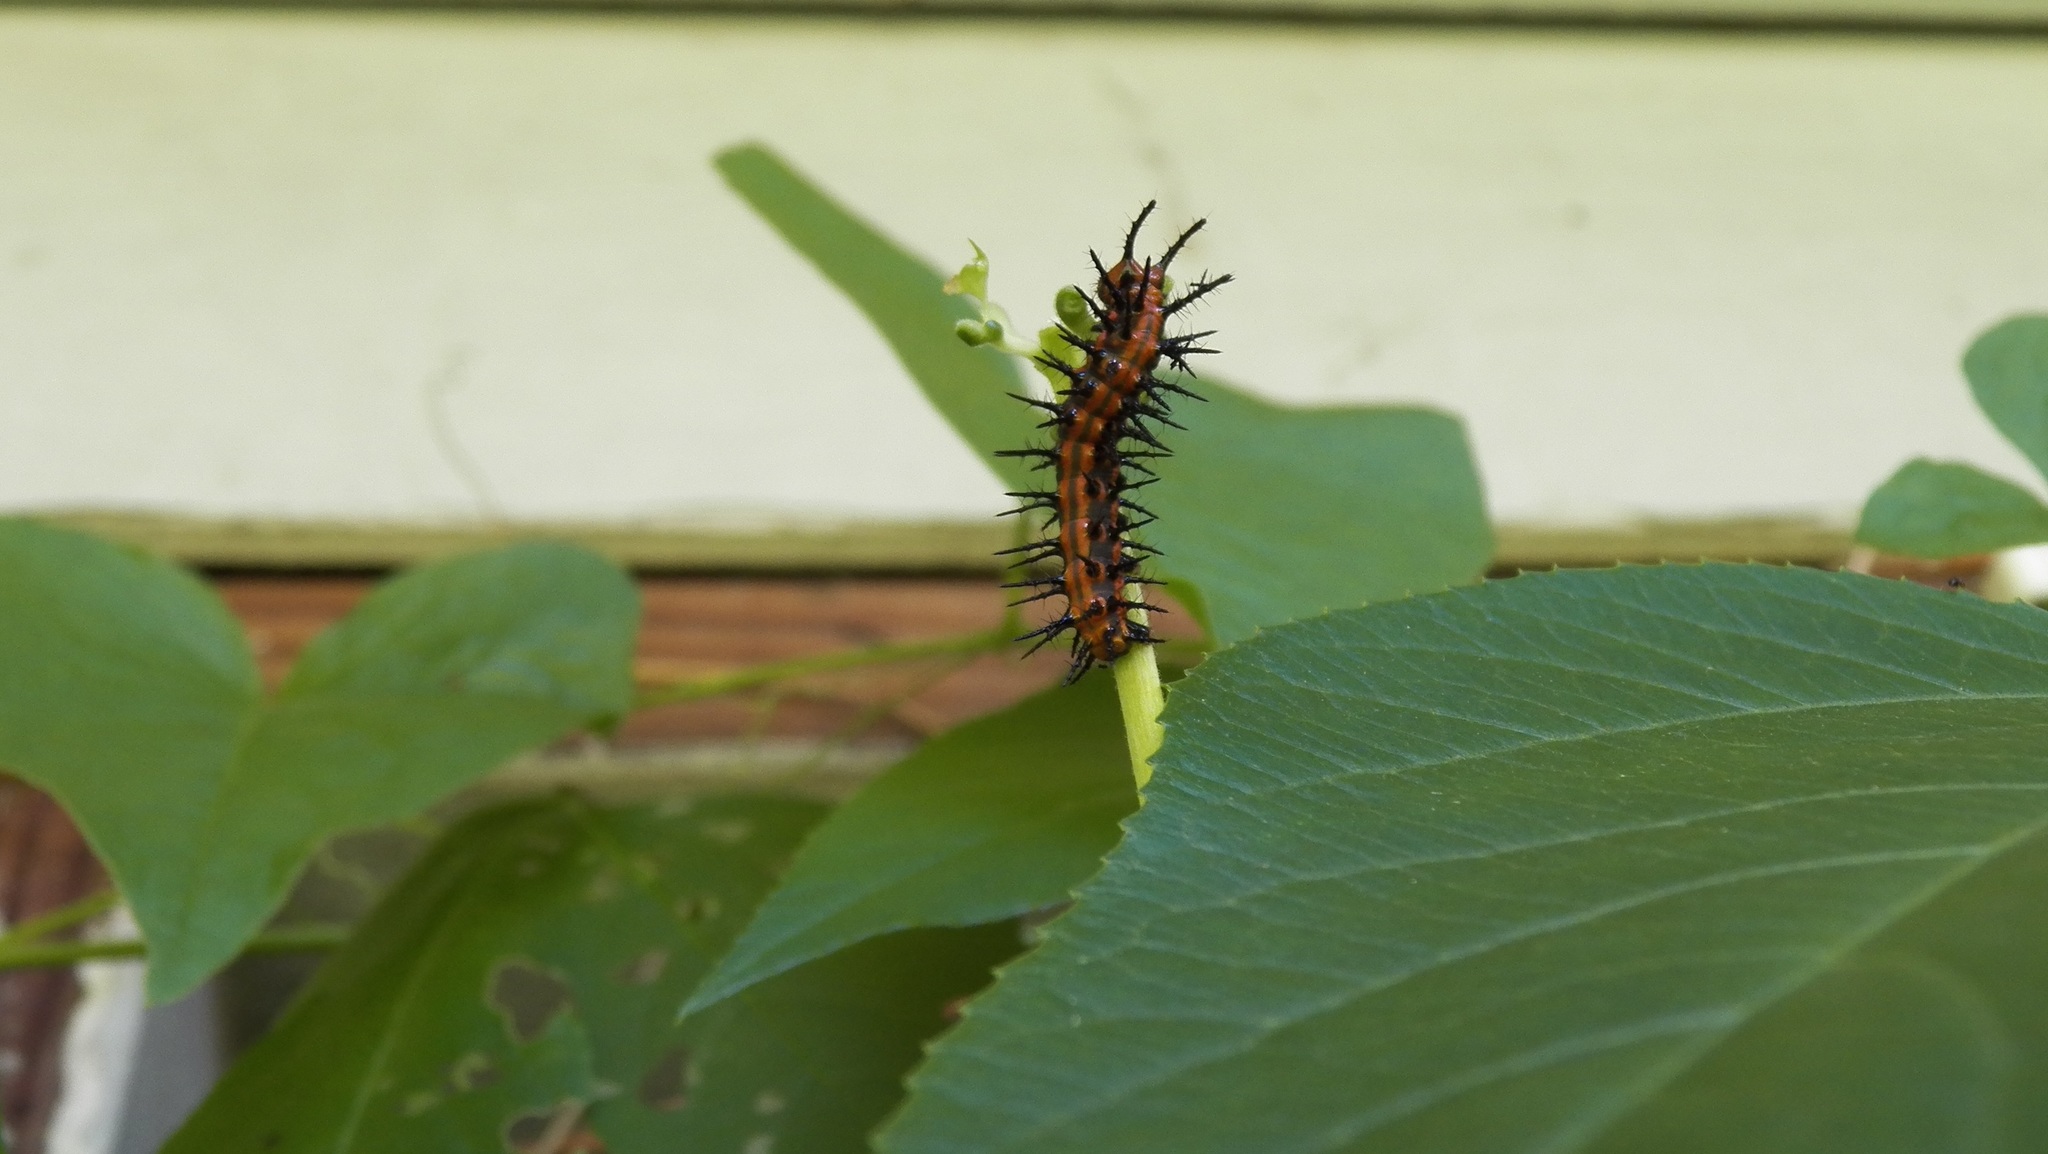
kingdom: Animalia
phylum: Arthropoda
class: Insecta
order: Lepidoptera
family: Nymphalidae
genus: Dione
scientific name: Dione vanillae
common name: Gulf fritillary
